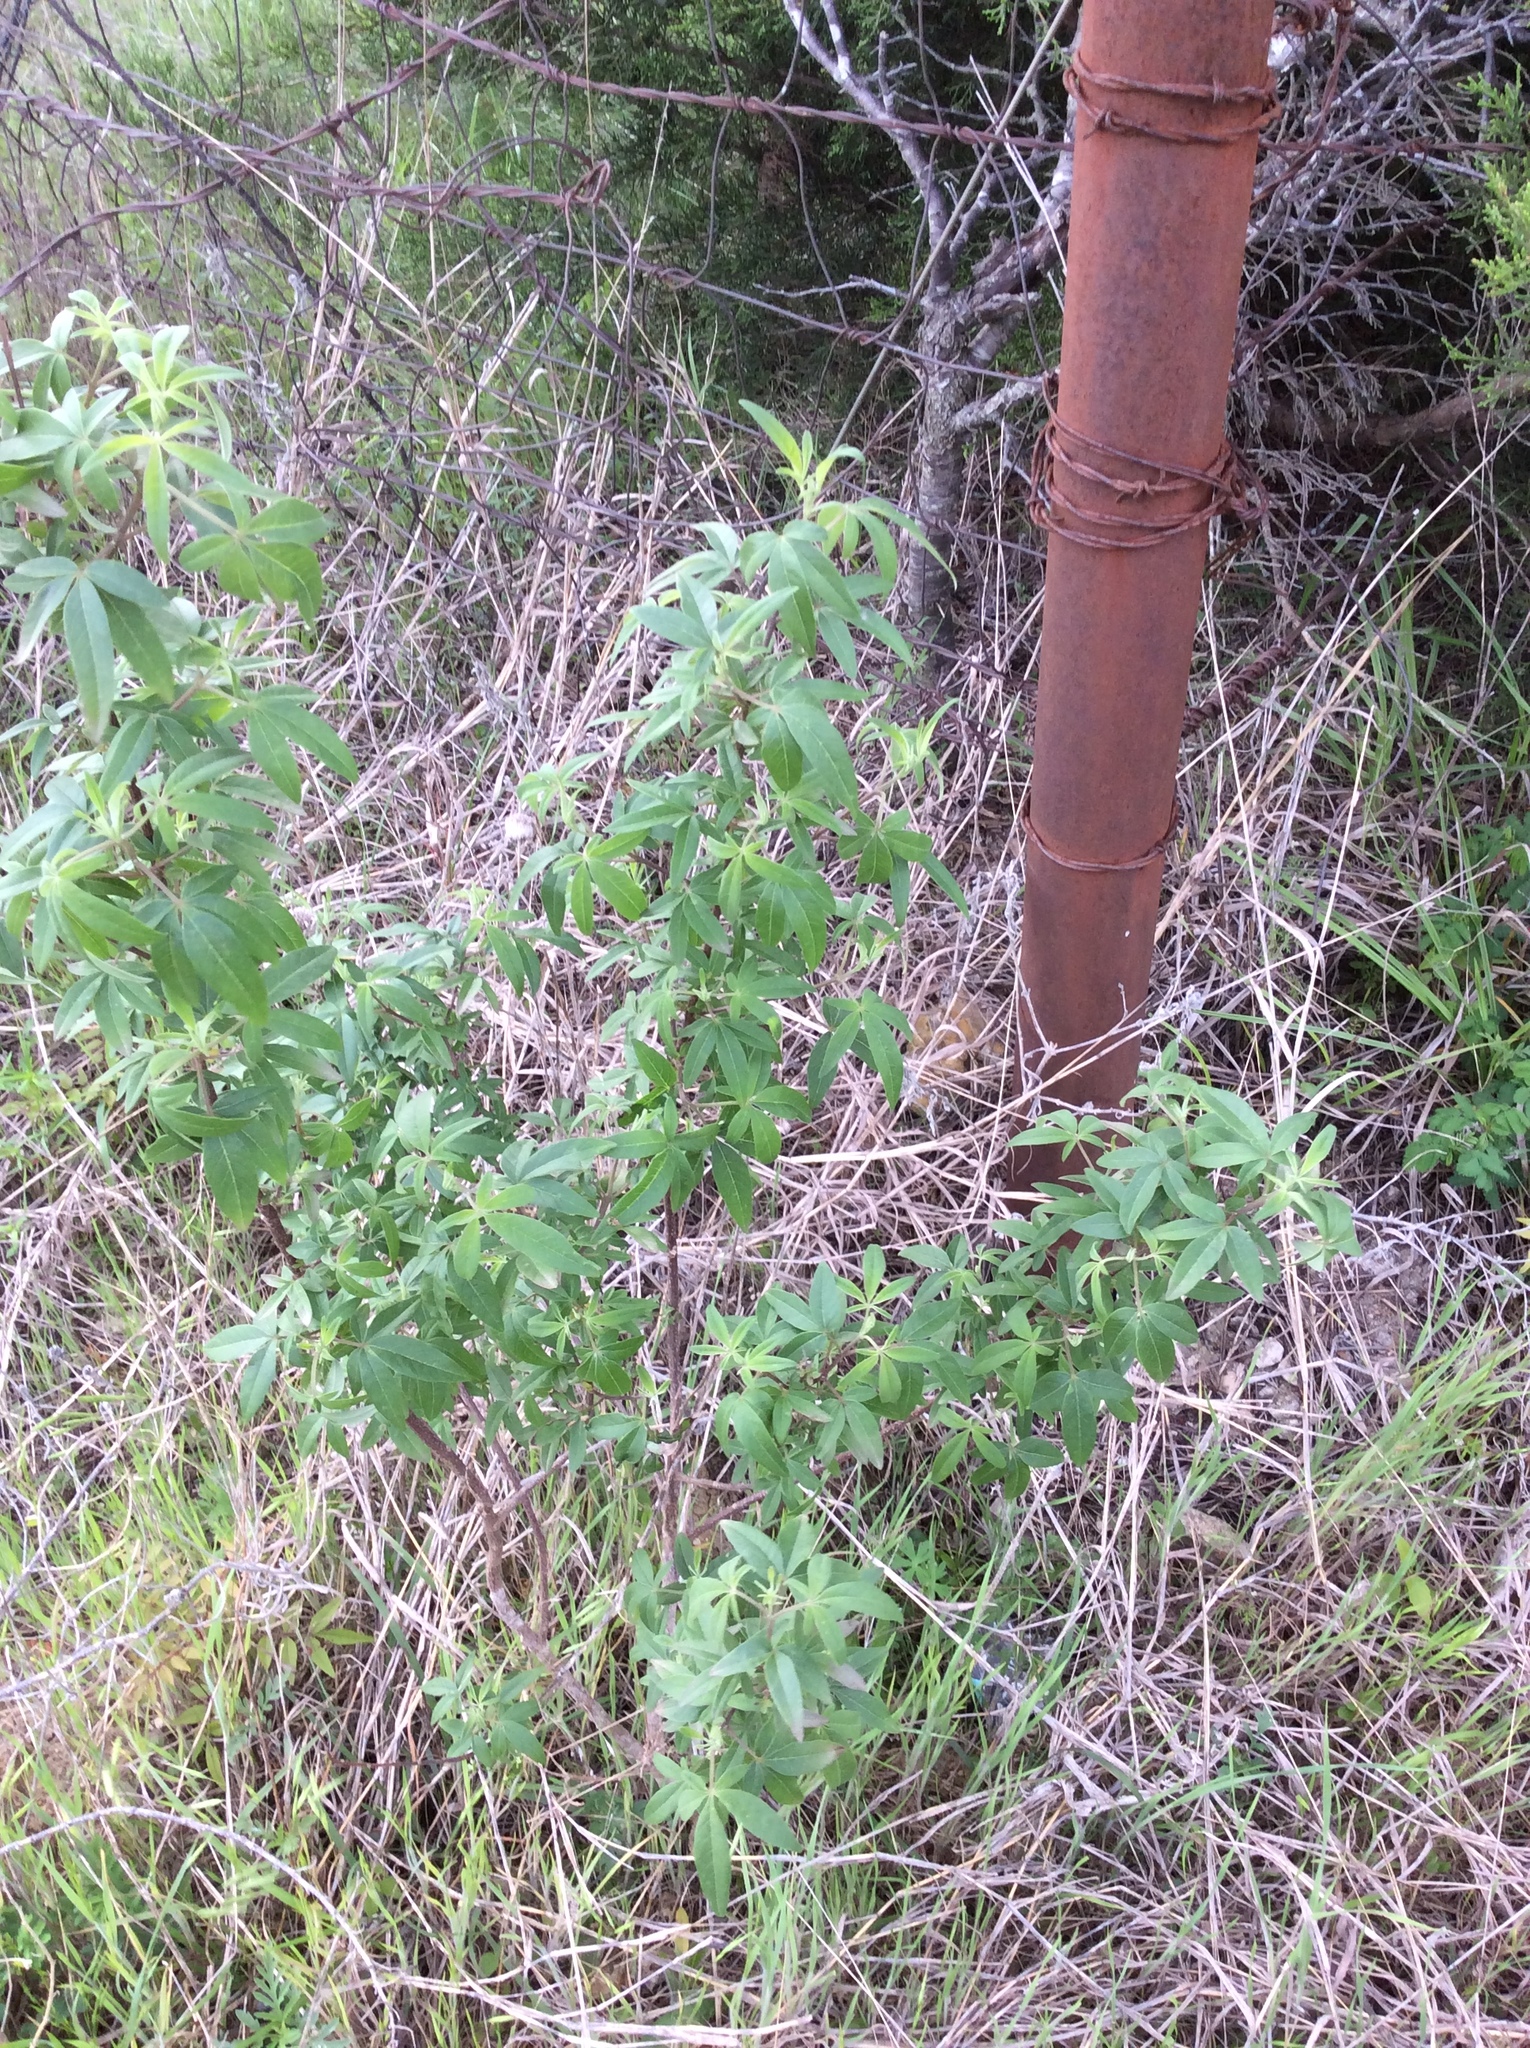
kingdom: Plantae
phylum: Tracheophyta
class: Magnoliopsida
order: Lamiales
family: Lamiaceae
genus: Vitex
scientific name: Vitex agnus-castus
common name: Chasteberry
